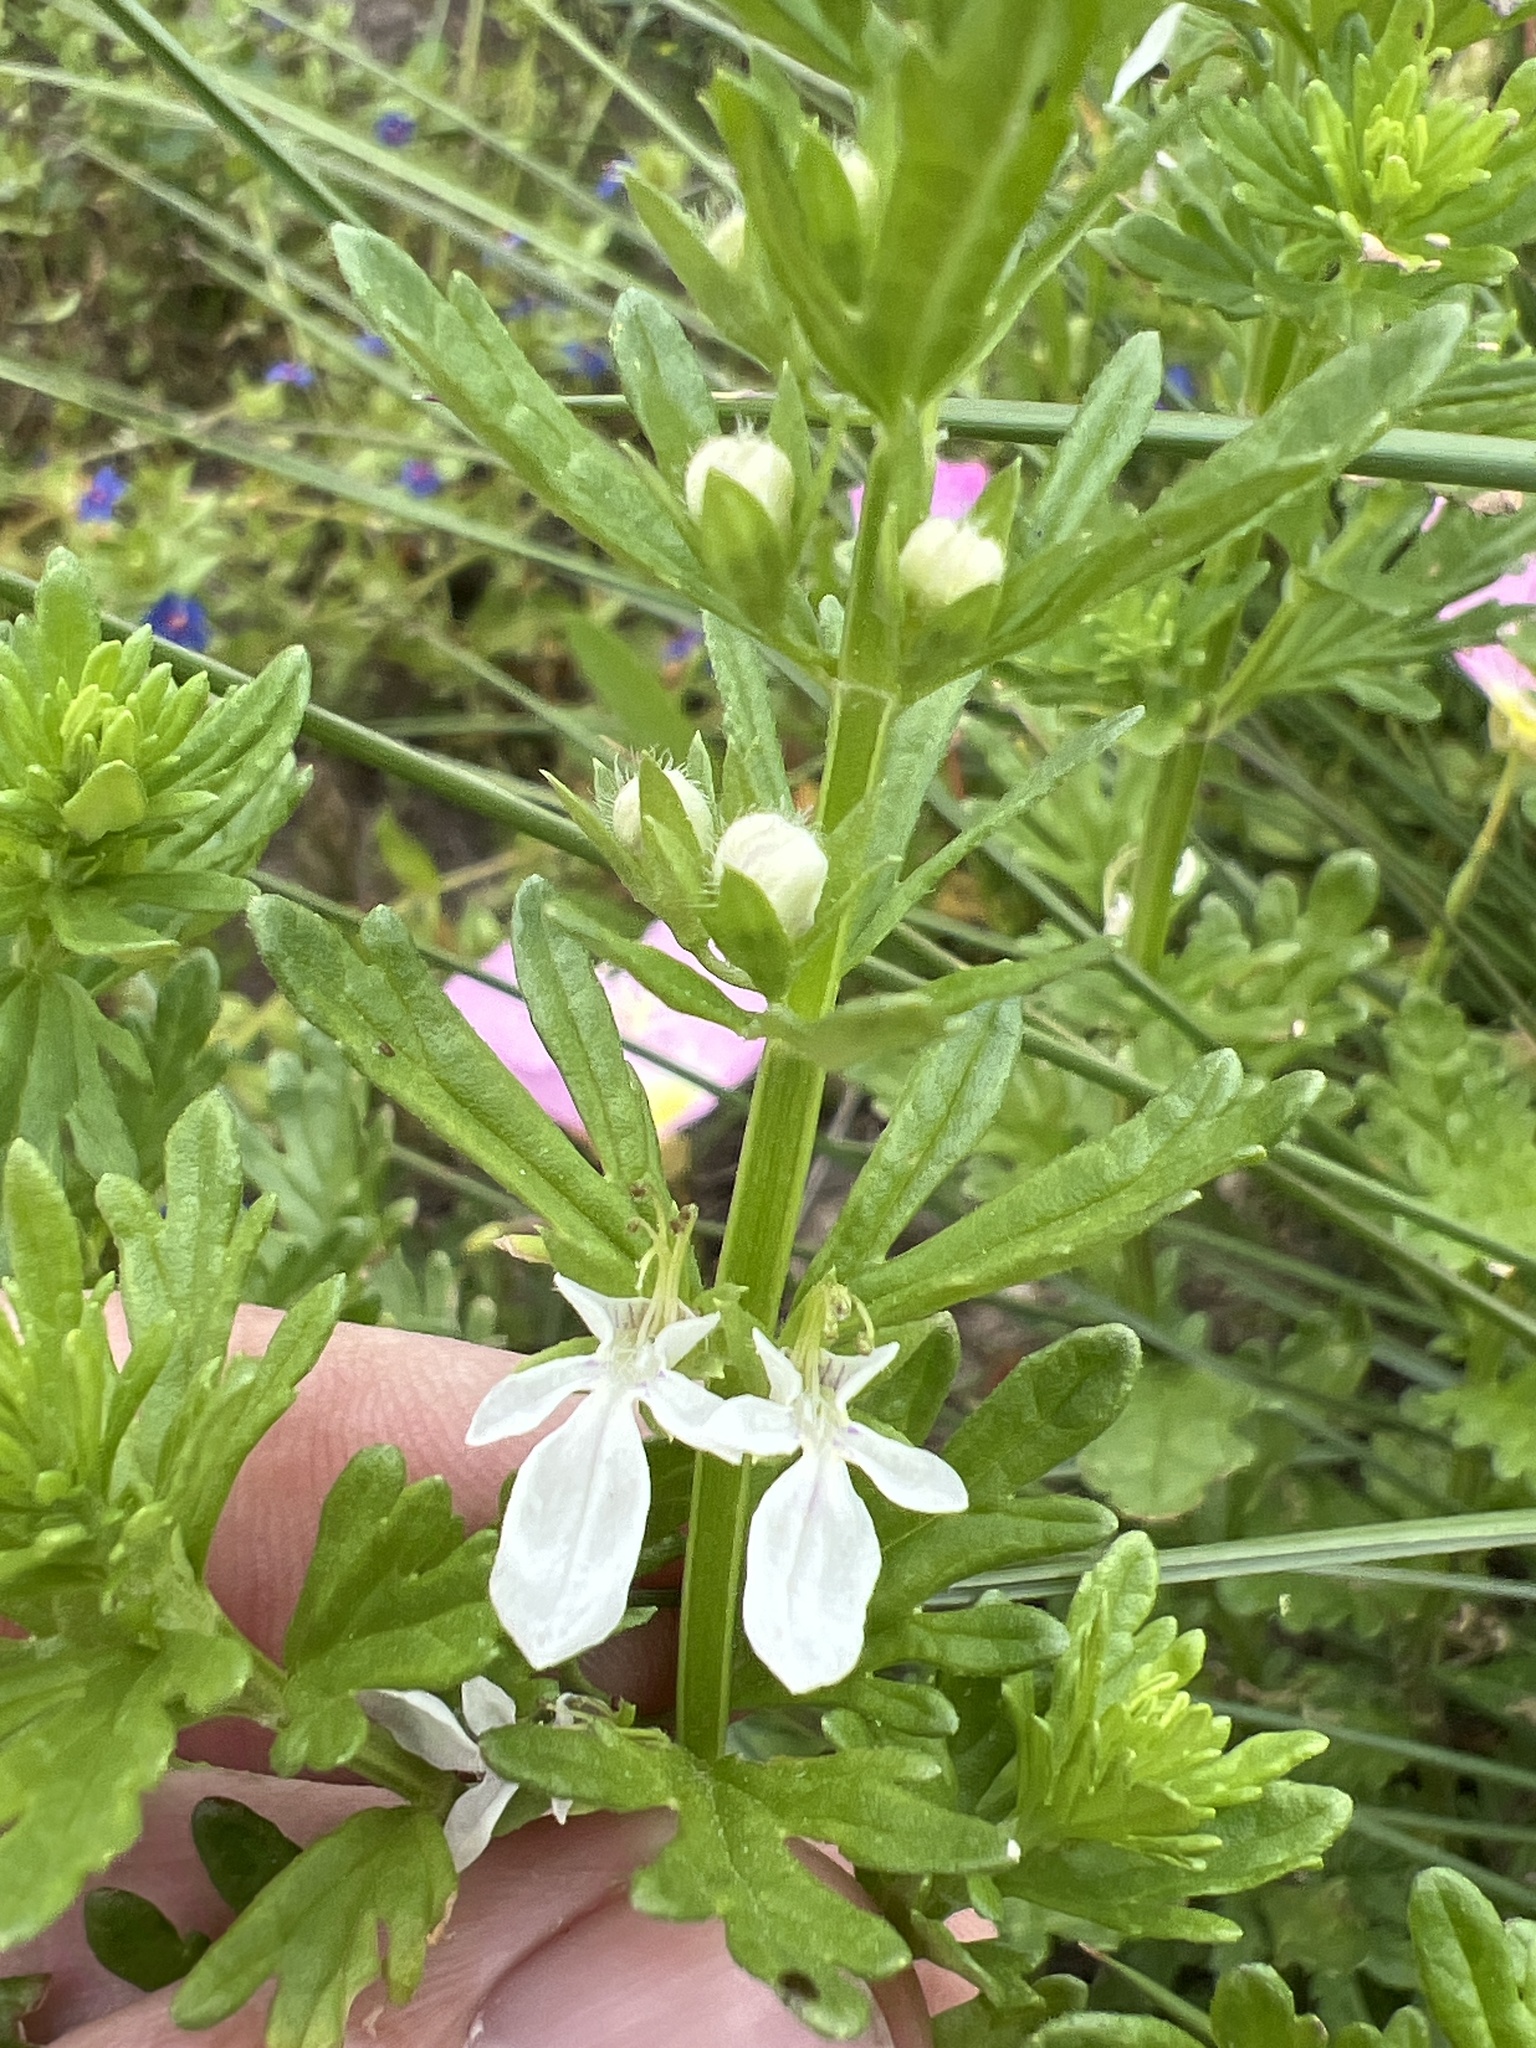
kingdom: Plantae
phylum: Tracheophyta
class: Magnoliopsida
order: Lamiales
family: Lamiaceae
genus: Teucrium
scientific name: Teucrium cubense
